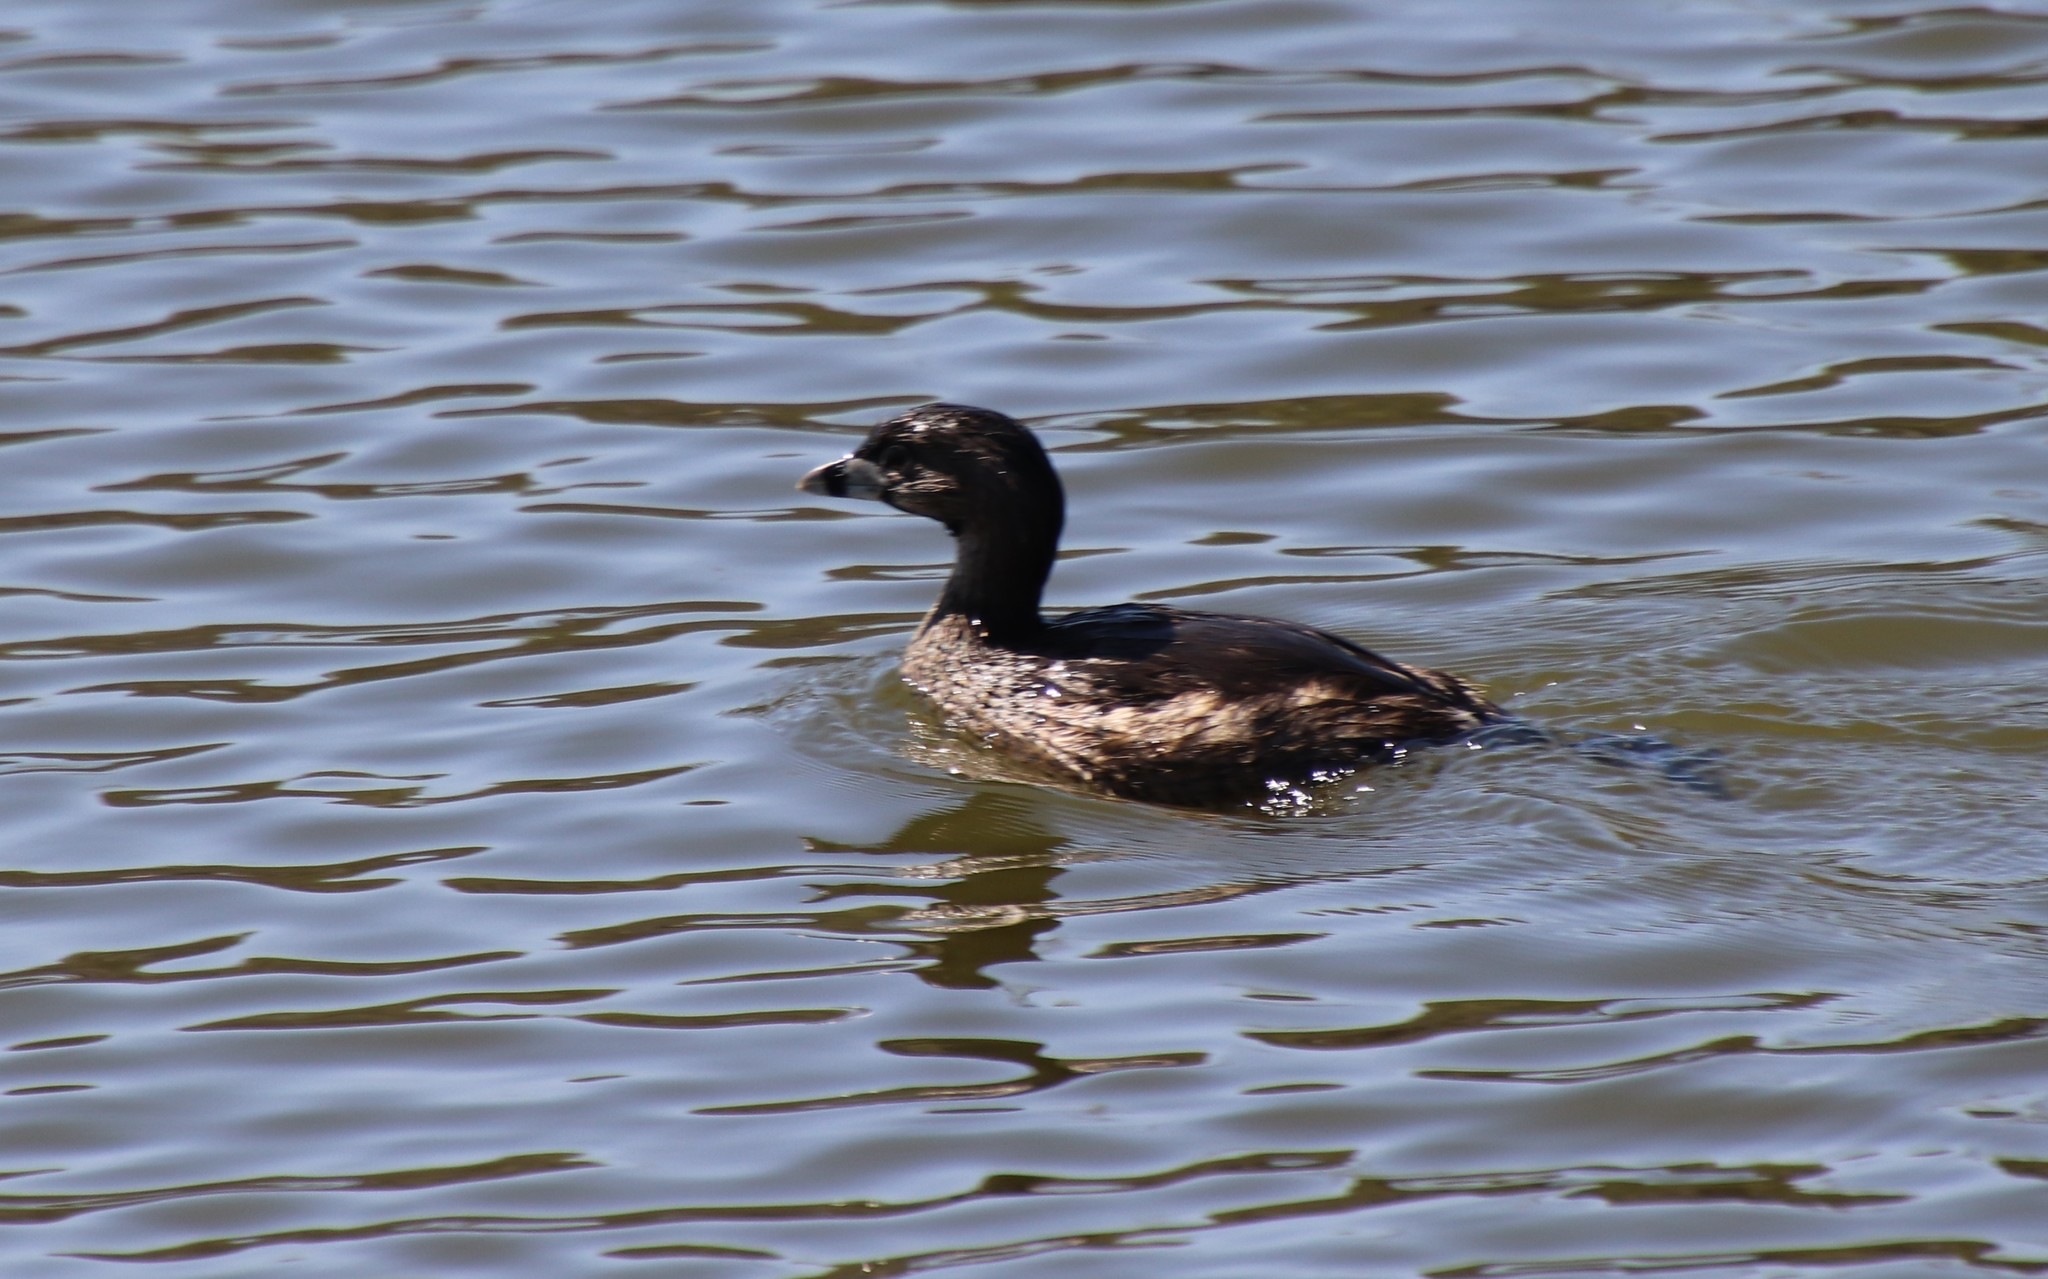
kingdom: Animalia
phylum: Chordata
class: Aves
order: Podicipediformes
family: Podicipedidae
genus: Podilymbus
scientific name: Podilymbus podiceps
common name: Pied-billed grebe
